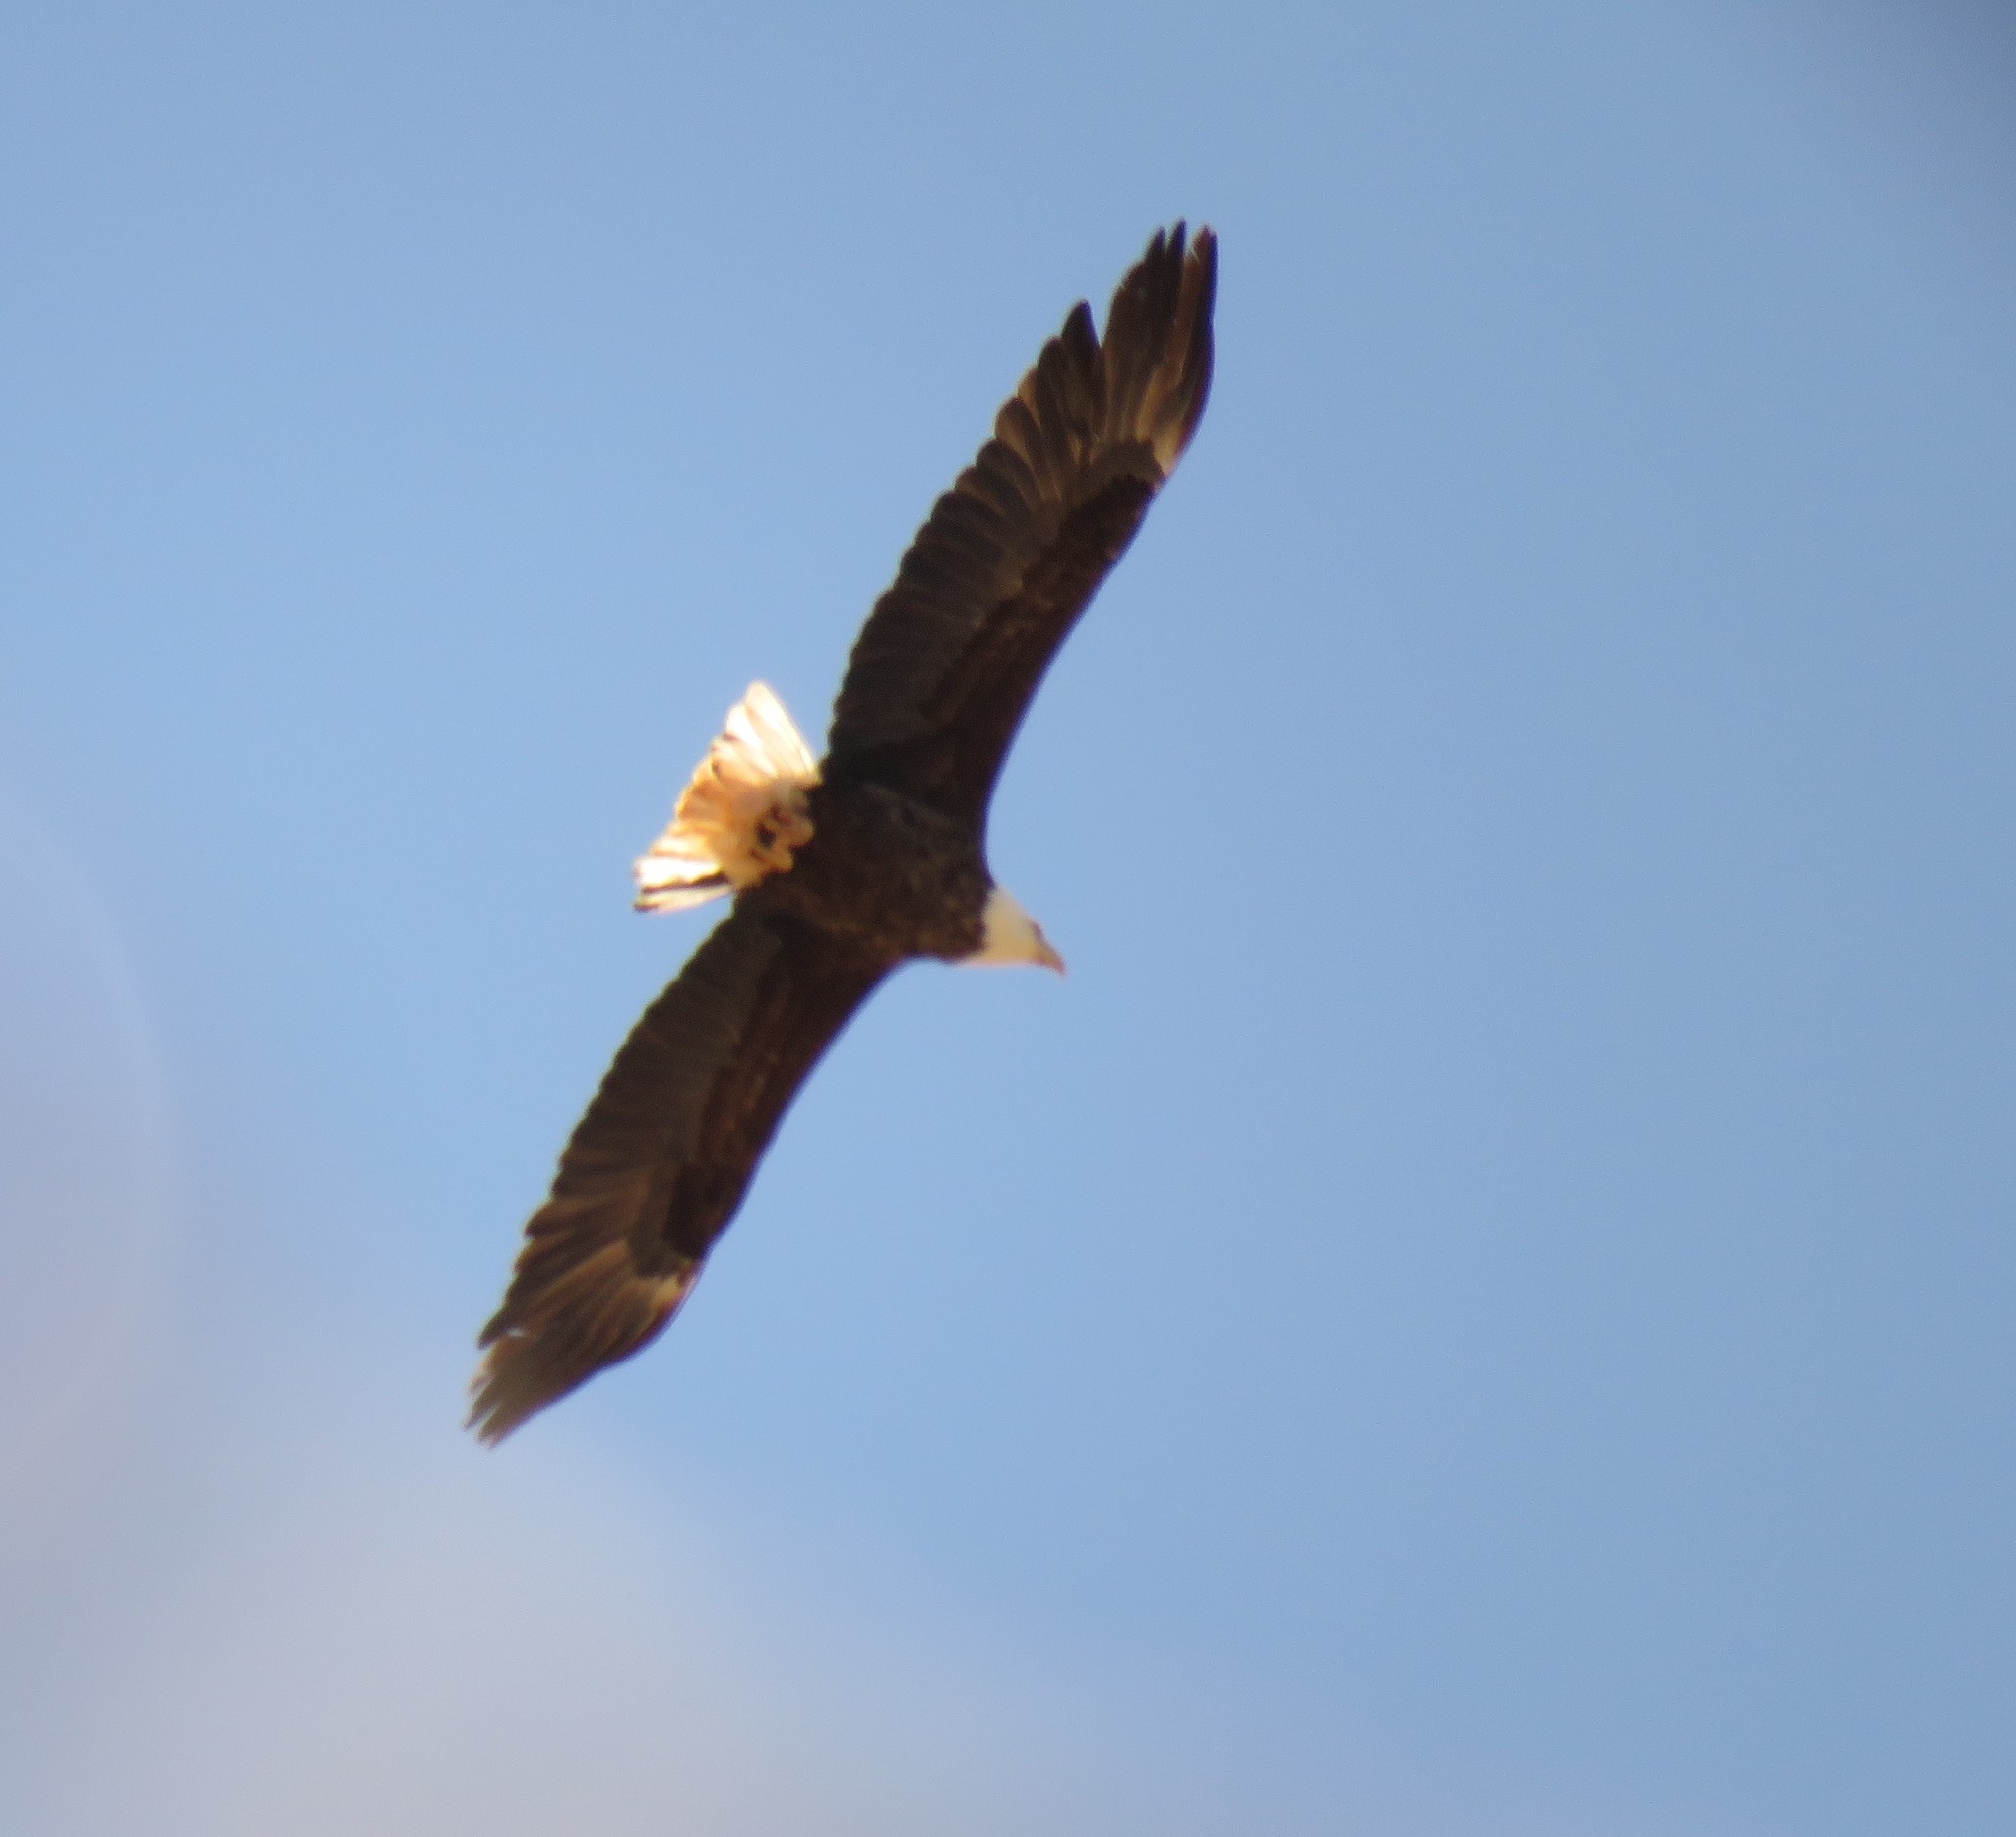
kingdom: Animalia
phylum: Chordata
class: Aves
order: Accipitriformes
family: Accipitridae
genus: Haliaeetus
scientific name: Haliaeetus leucocephalus
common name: Bald eagle
